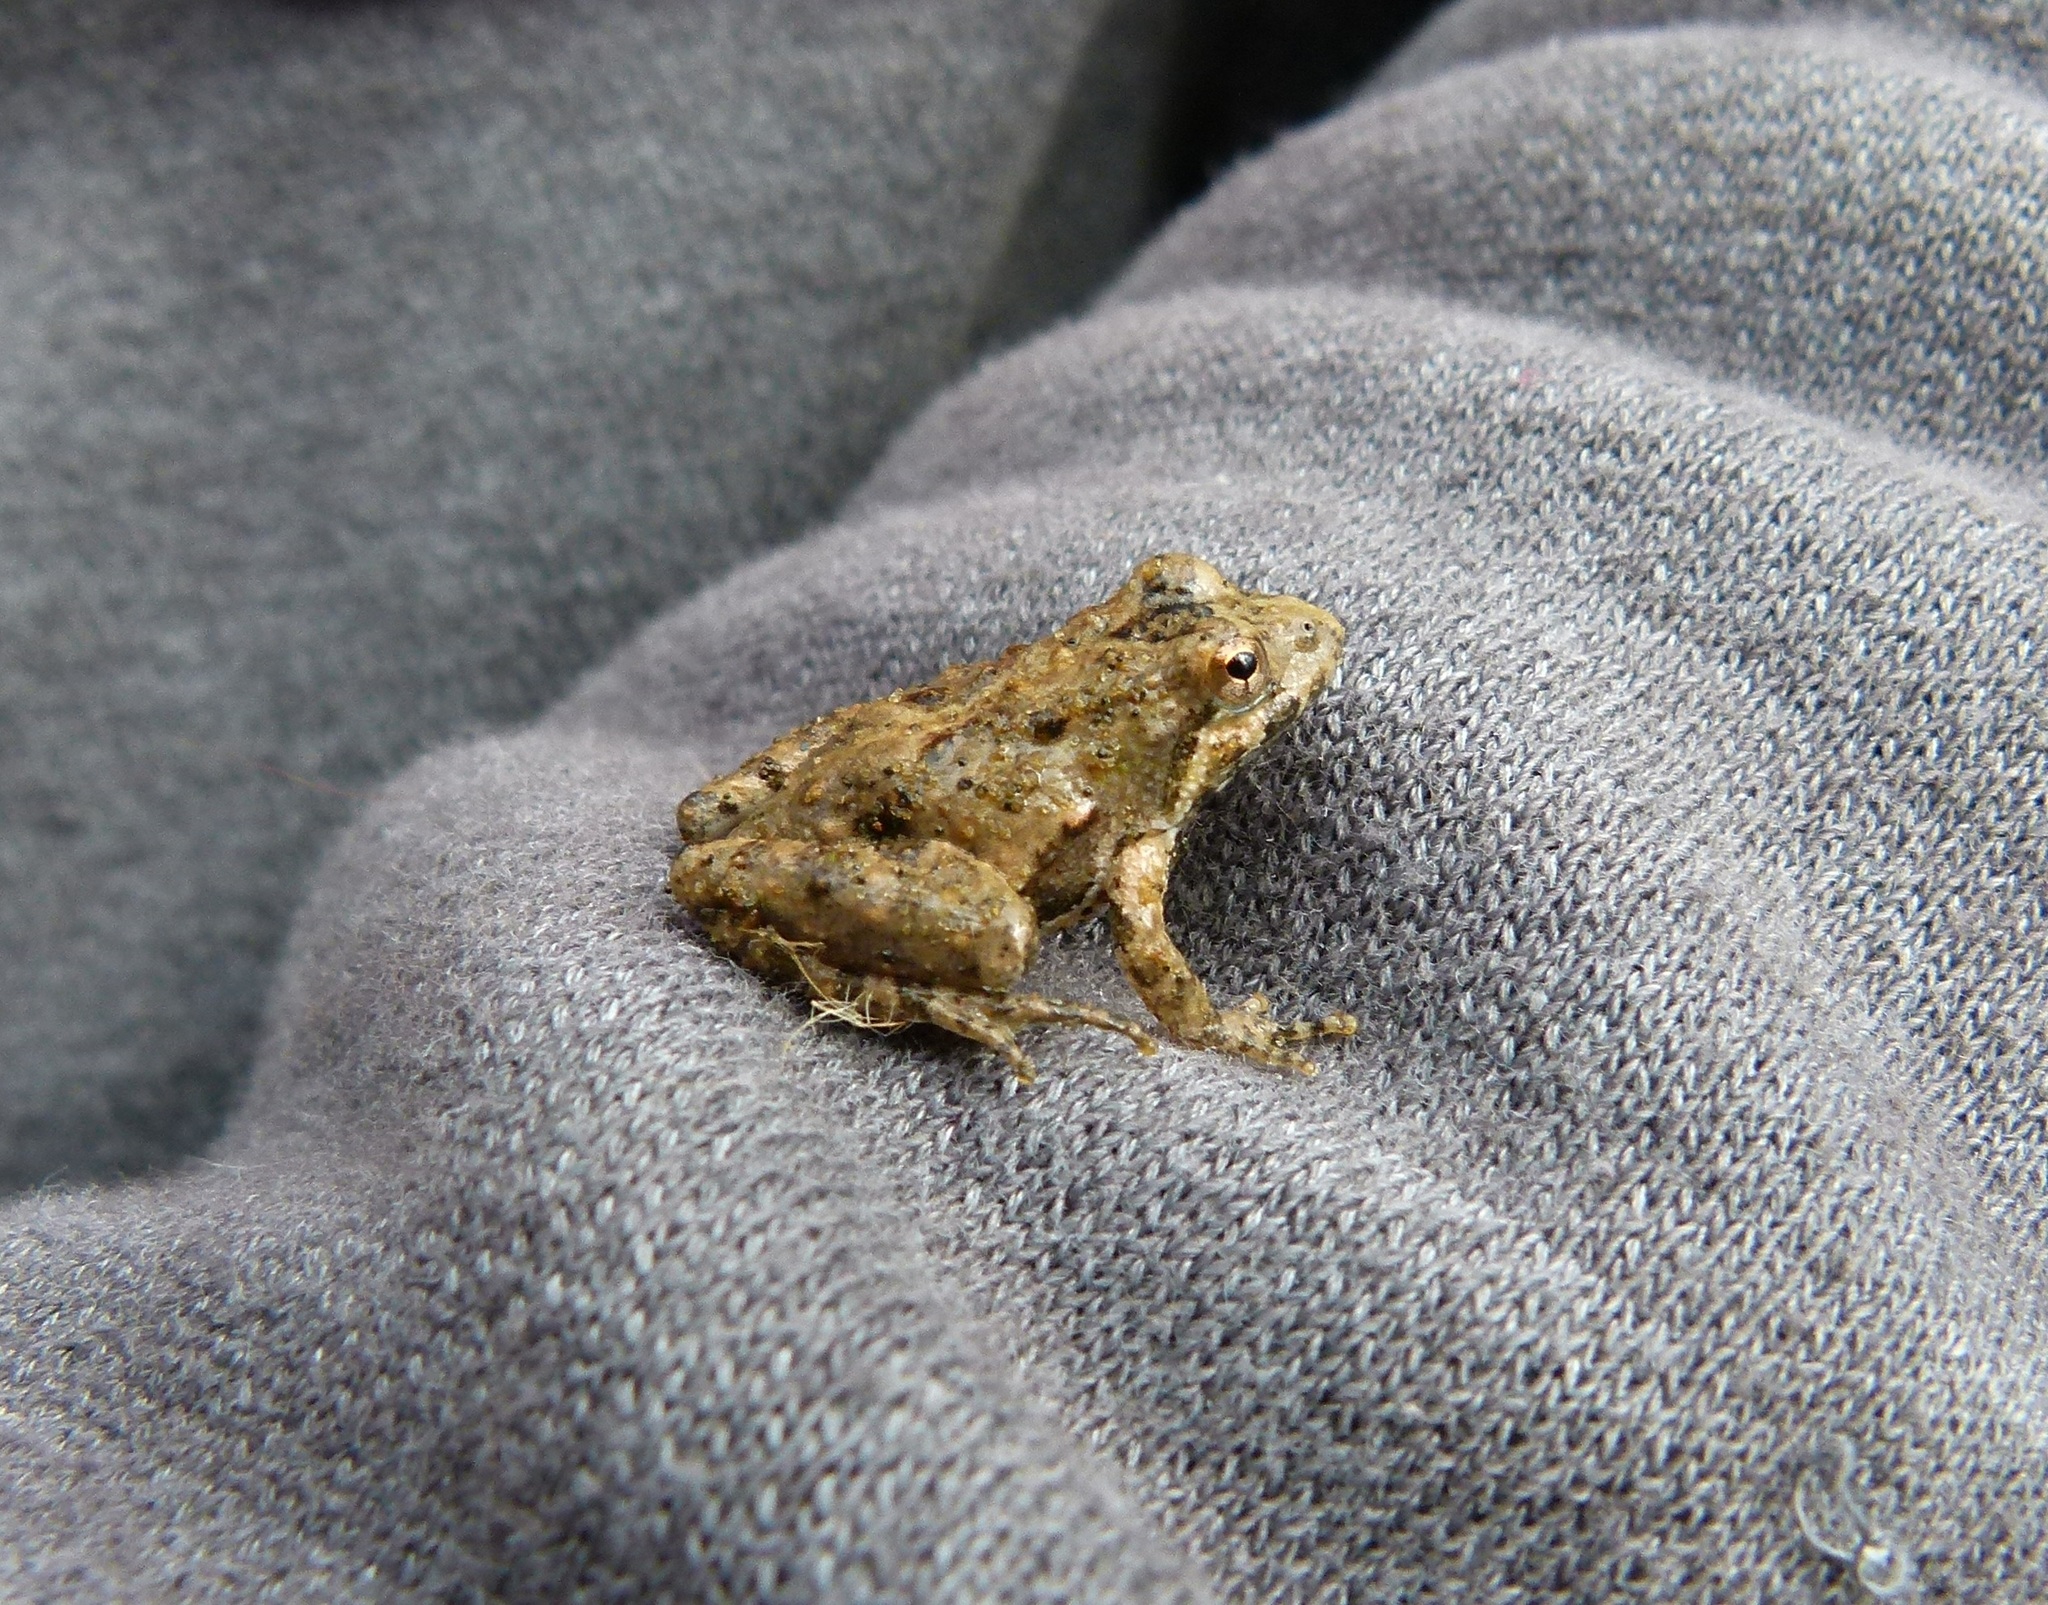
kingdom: Animalia
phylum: Chordata
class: Amphibia
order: Anura
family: Hylidae
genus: Acris
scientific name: Acris crepitans
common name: Northern cricket frog
